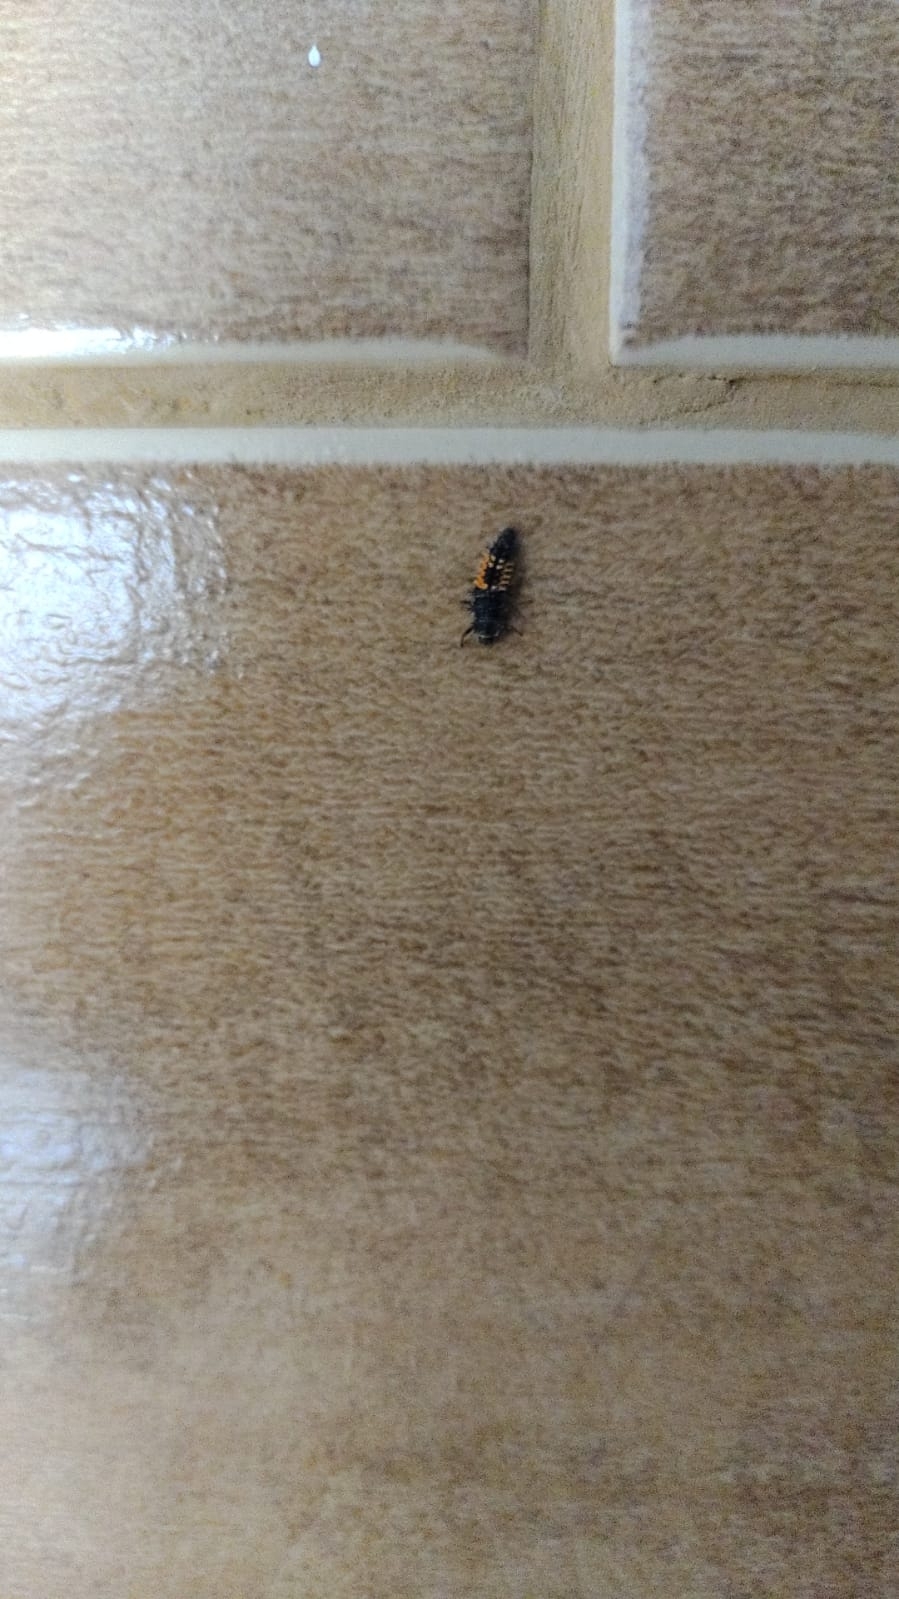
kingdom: Animalia
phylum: Arthropoda
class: Insecta
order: Coleoptera
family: Coccinellidae
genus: Harmonia
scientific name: Harmonia axyridis
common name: Harlequin ladybird
